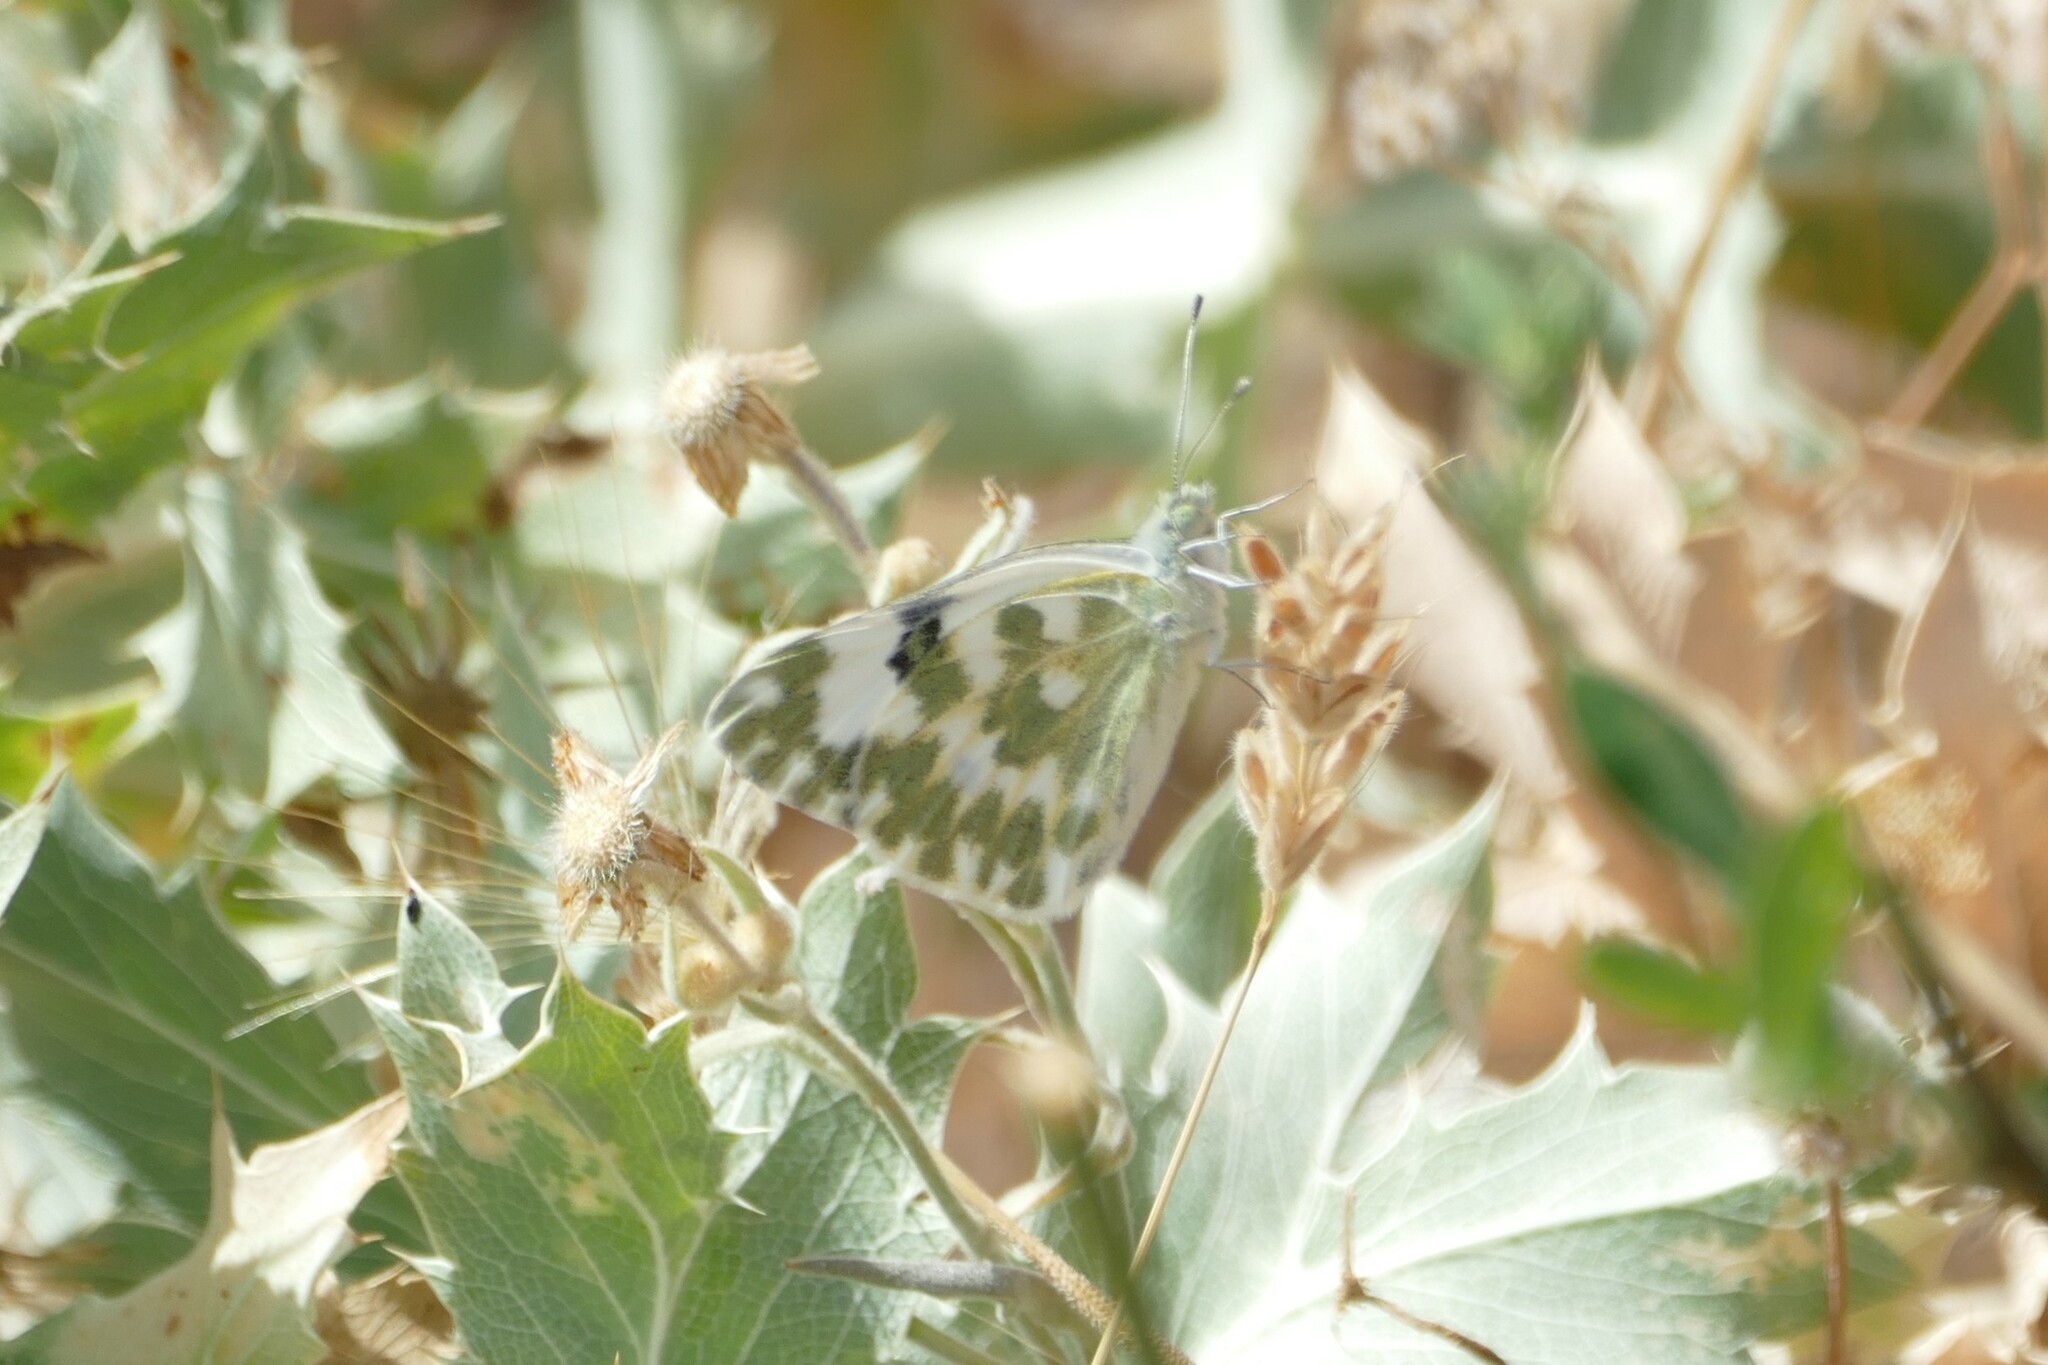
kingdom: Animalia
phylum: Arthropoda
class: Insecta
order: Lepidoptera
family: Pieridae
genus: Pontia
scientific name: Pontia daplidice
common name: Bath white
